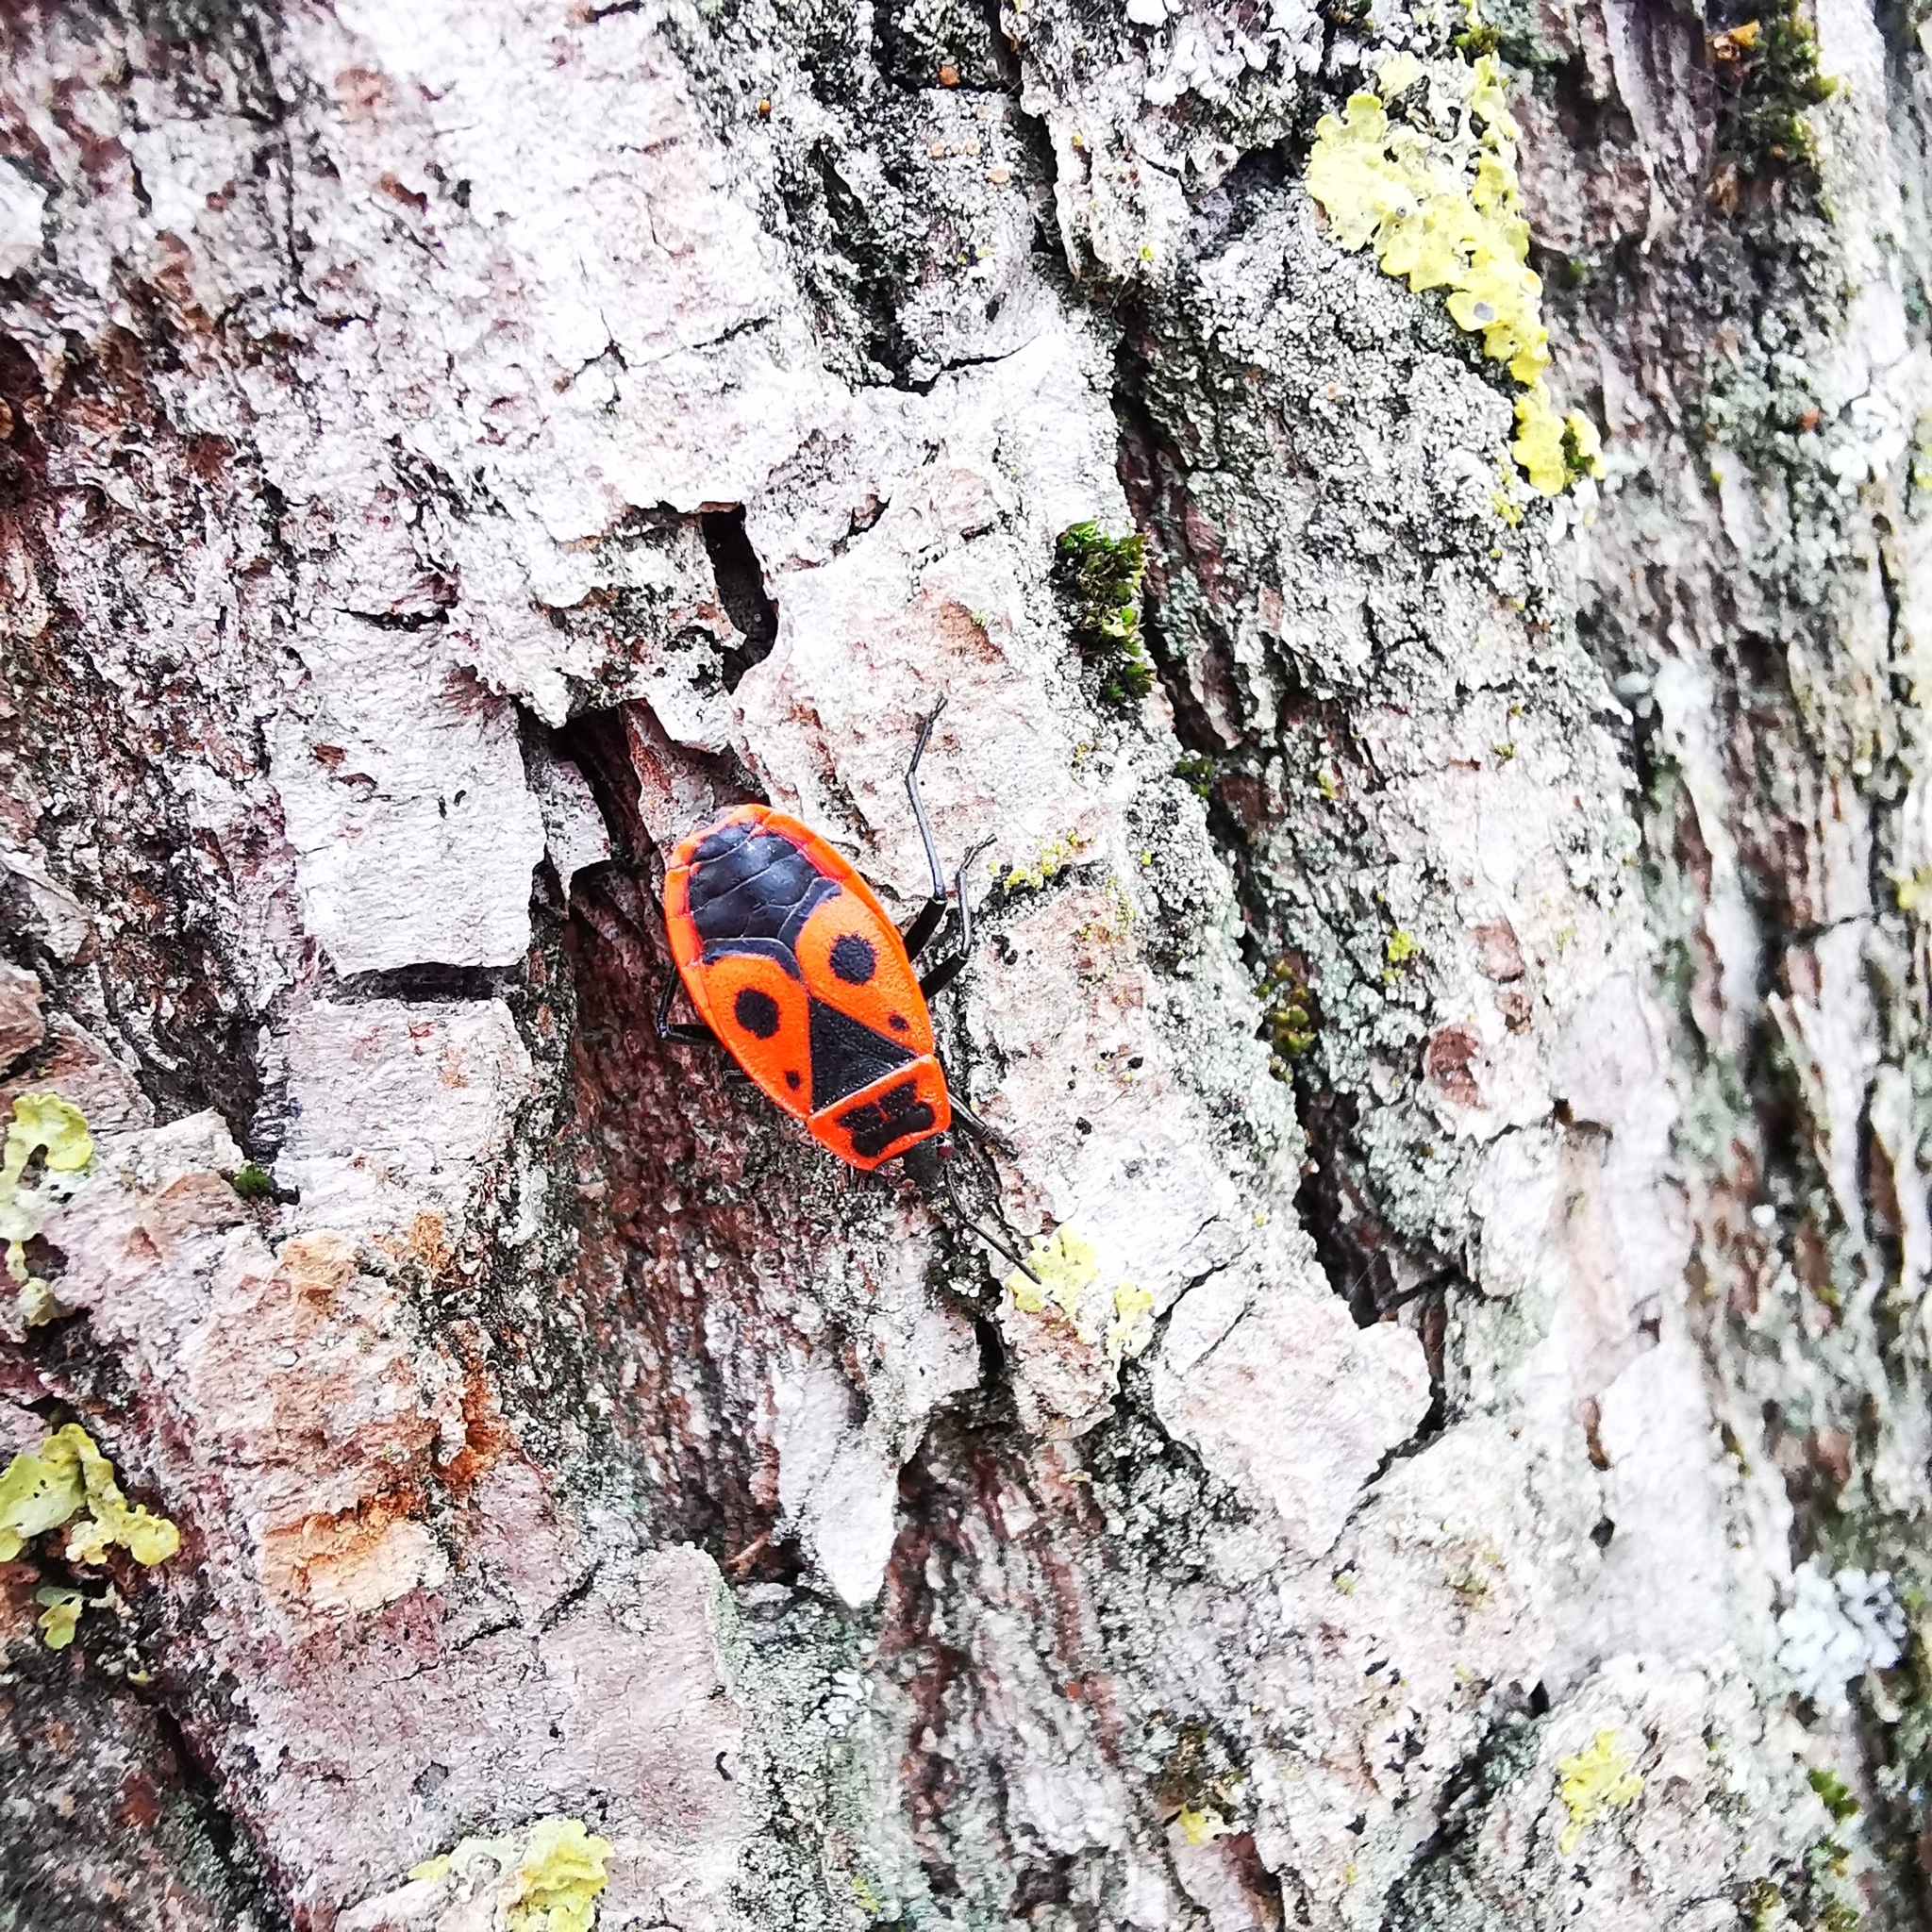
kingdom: Animalia
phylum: Arthropoda
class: Insecta
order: Hemiptera
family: Pyrrhocoridae
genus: Pyrrhocoris
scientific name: Pyrrhocoris apterus
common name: Firebug
